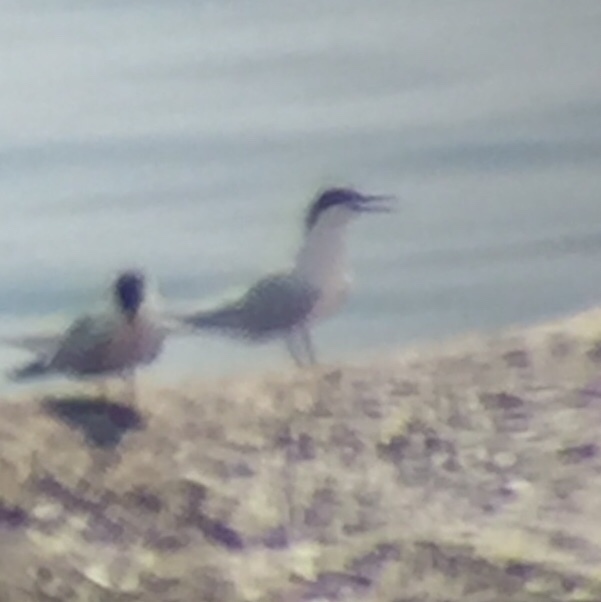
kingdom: Animalia
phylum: Chordata
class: Aves
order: Charadriiformes
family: Laridae
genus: Sterna
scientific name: Sterna dougallii
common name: Roseate tern
